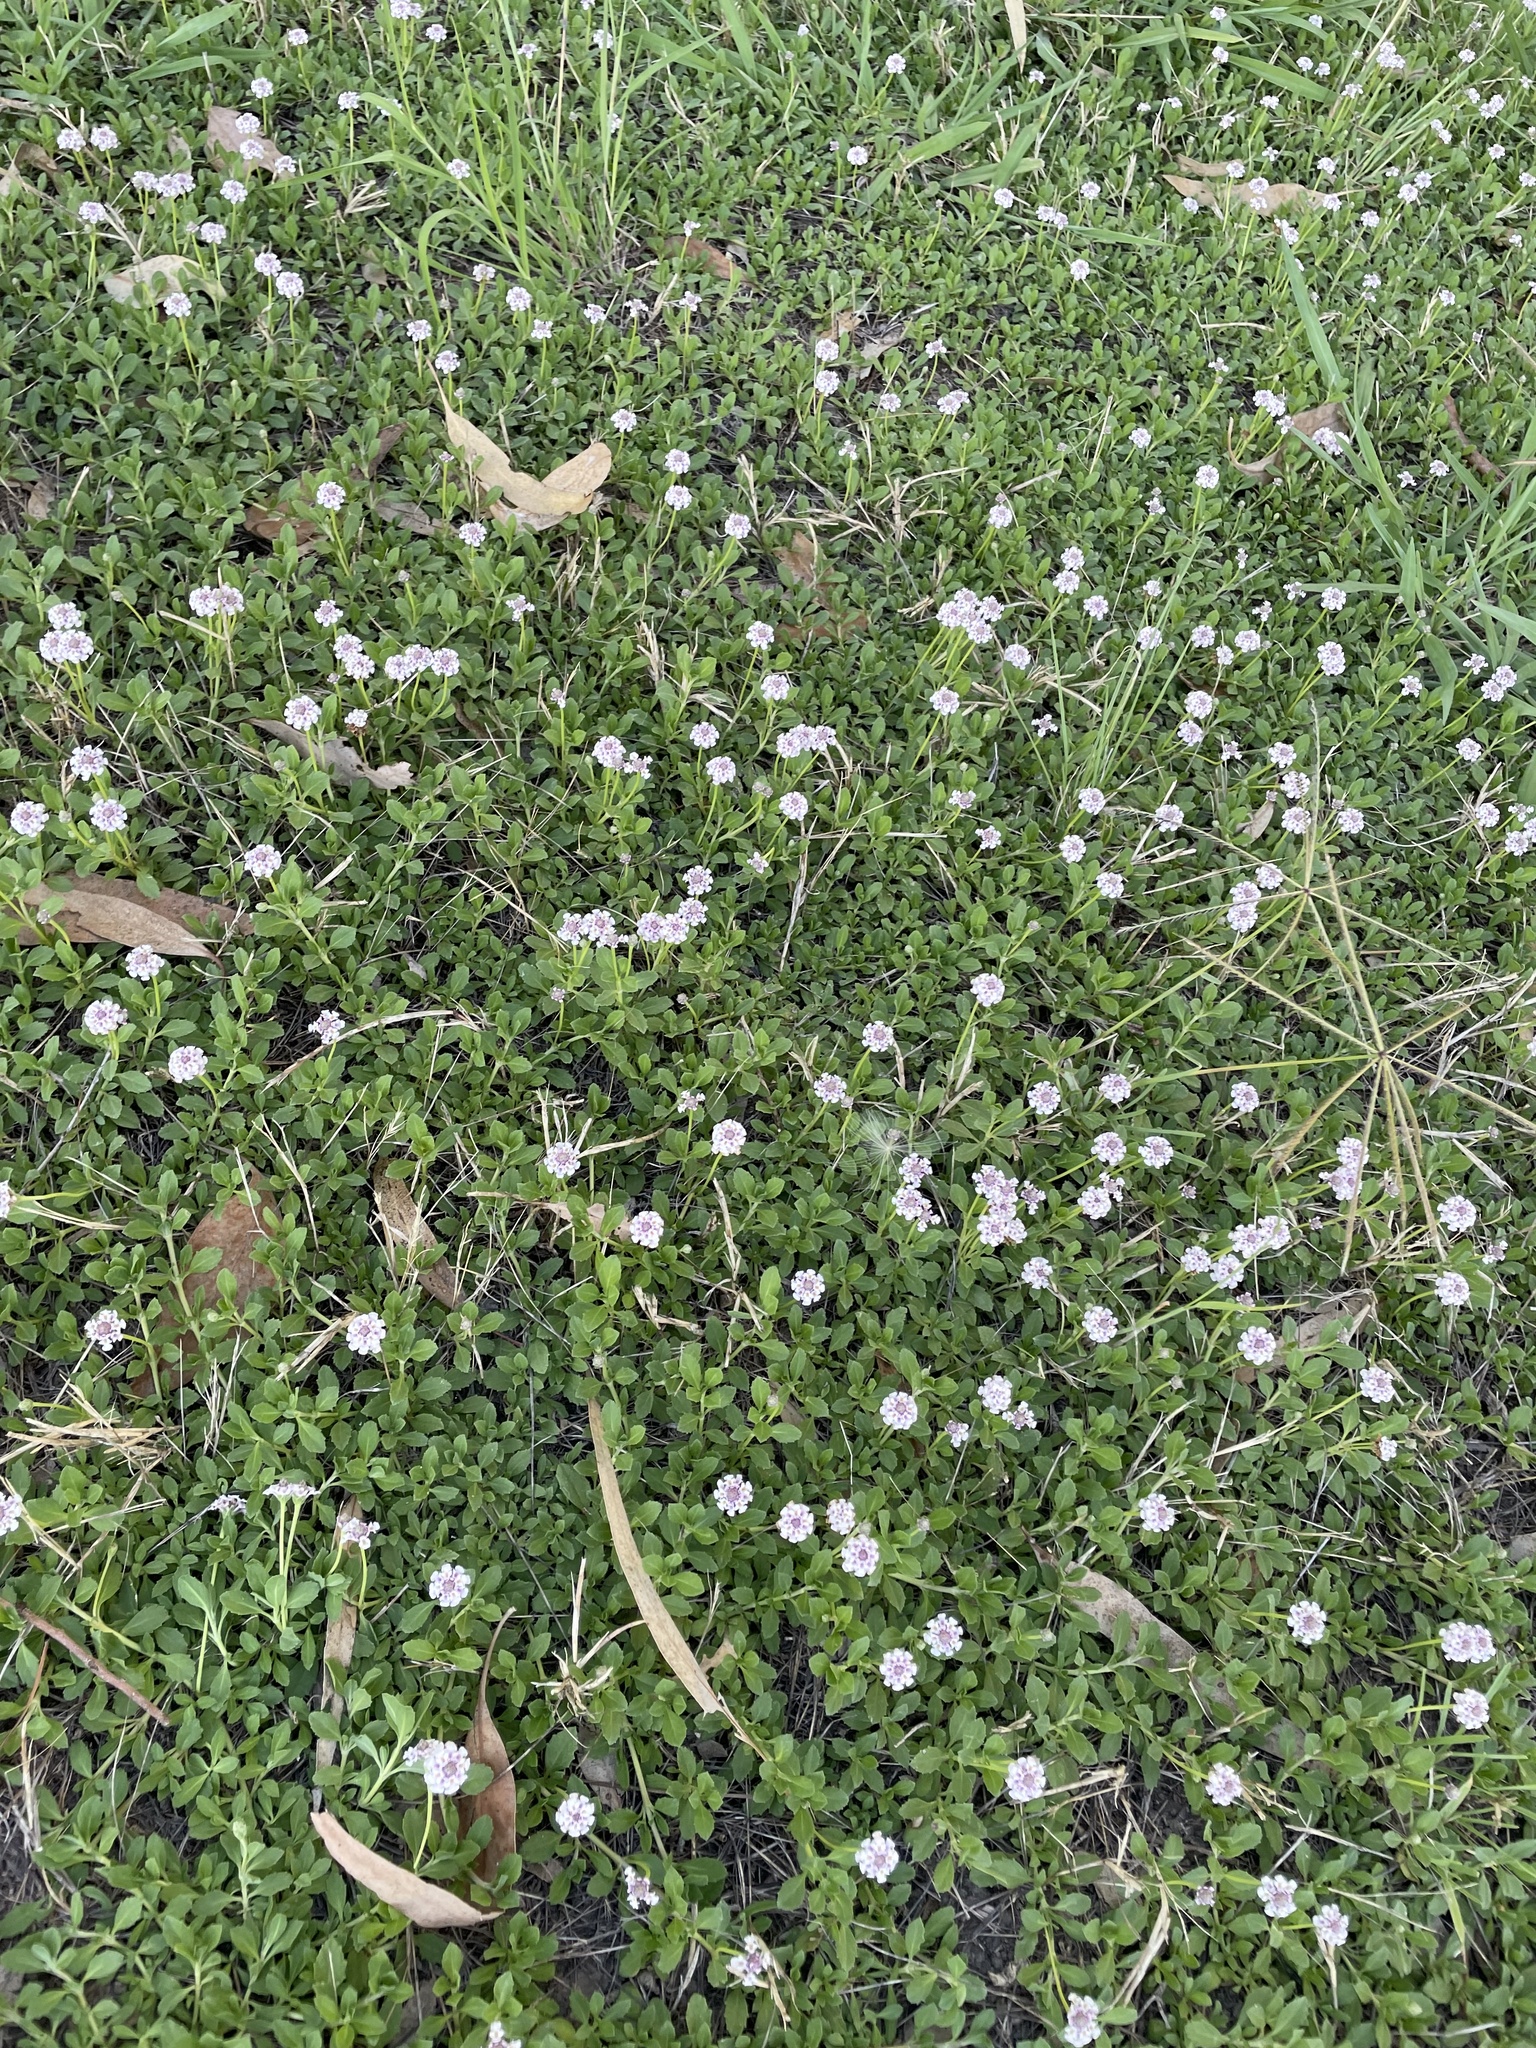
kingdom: Plantae
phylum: Tracheophyta
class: Magnoliopsida
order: Lamiales
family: Verbenaceae
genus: Phyla
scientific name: Phyla nodiflora
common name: Frogfruit
